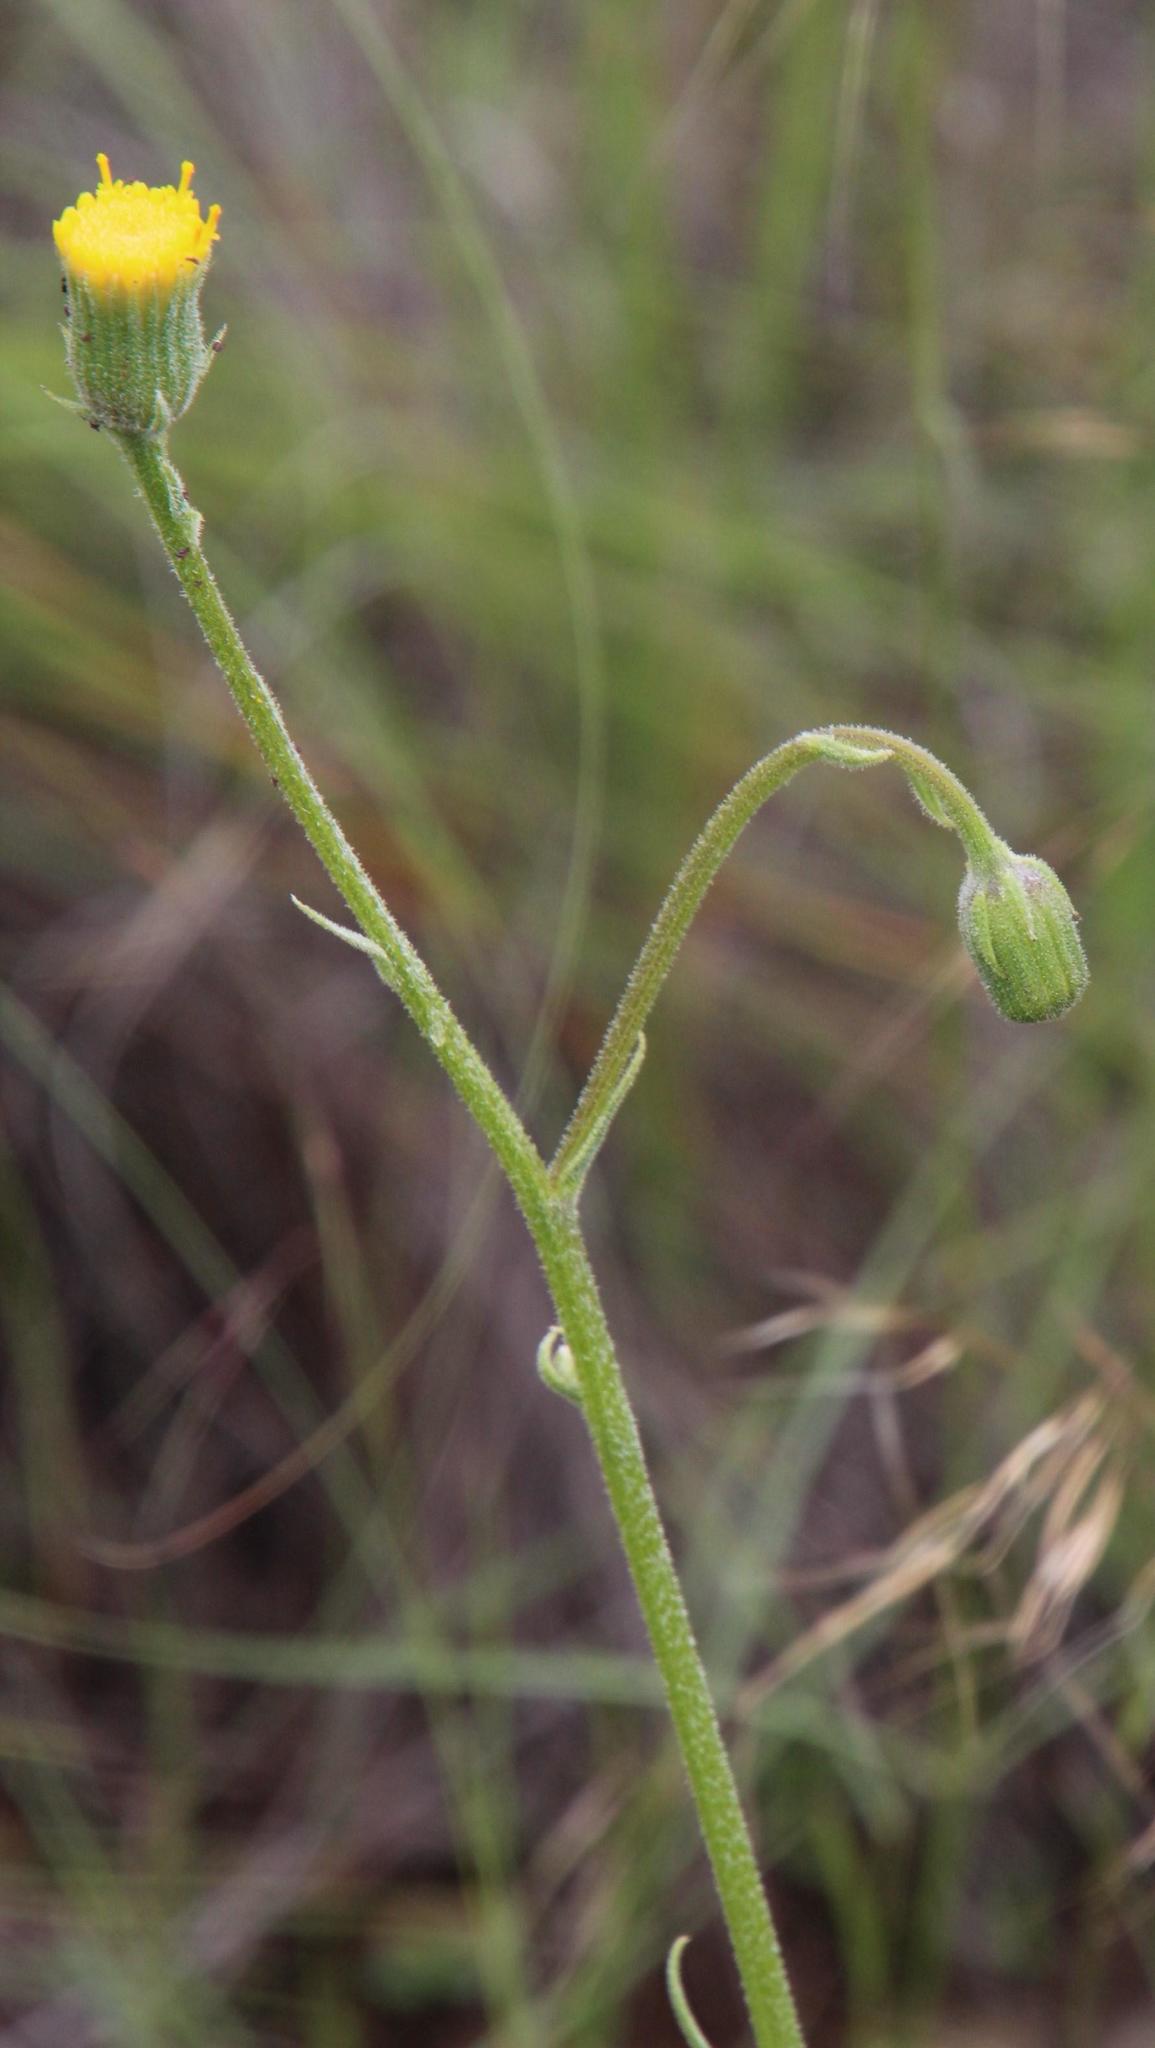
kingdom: Plantae
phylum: Tracheophyta
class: Magnoliopsida
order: Asterales
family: Asteraceae
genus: Senecio
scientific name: Senecio asperulus
